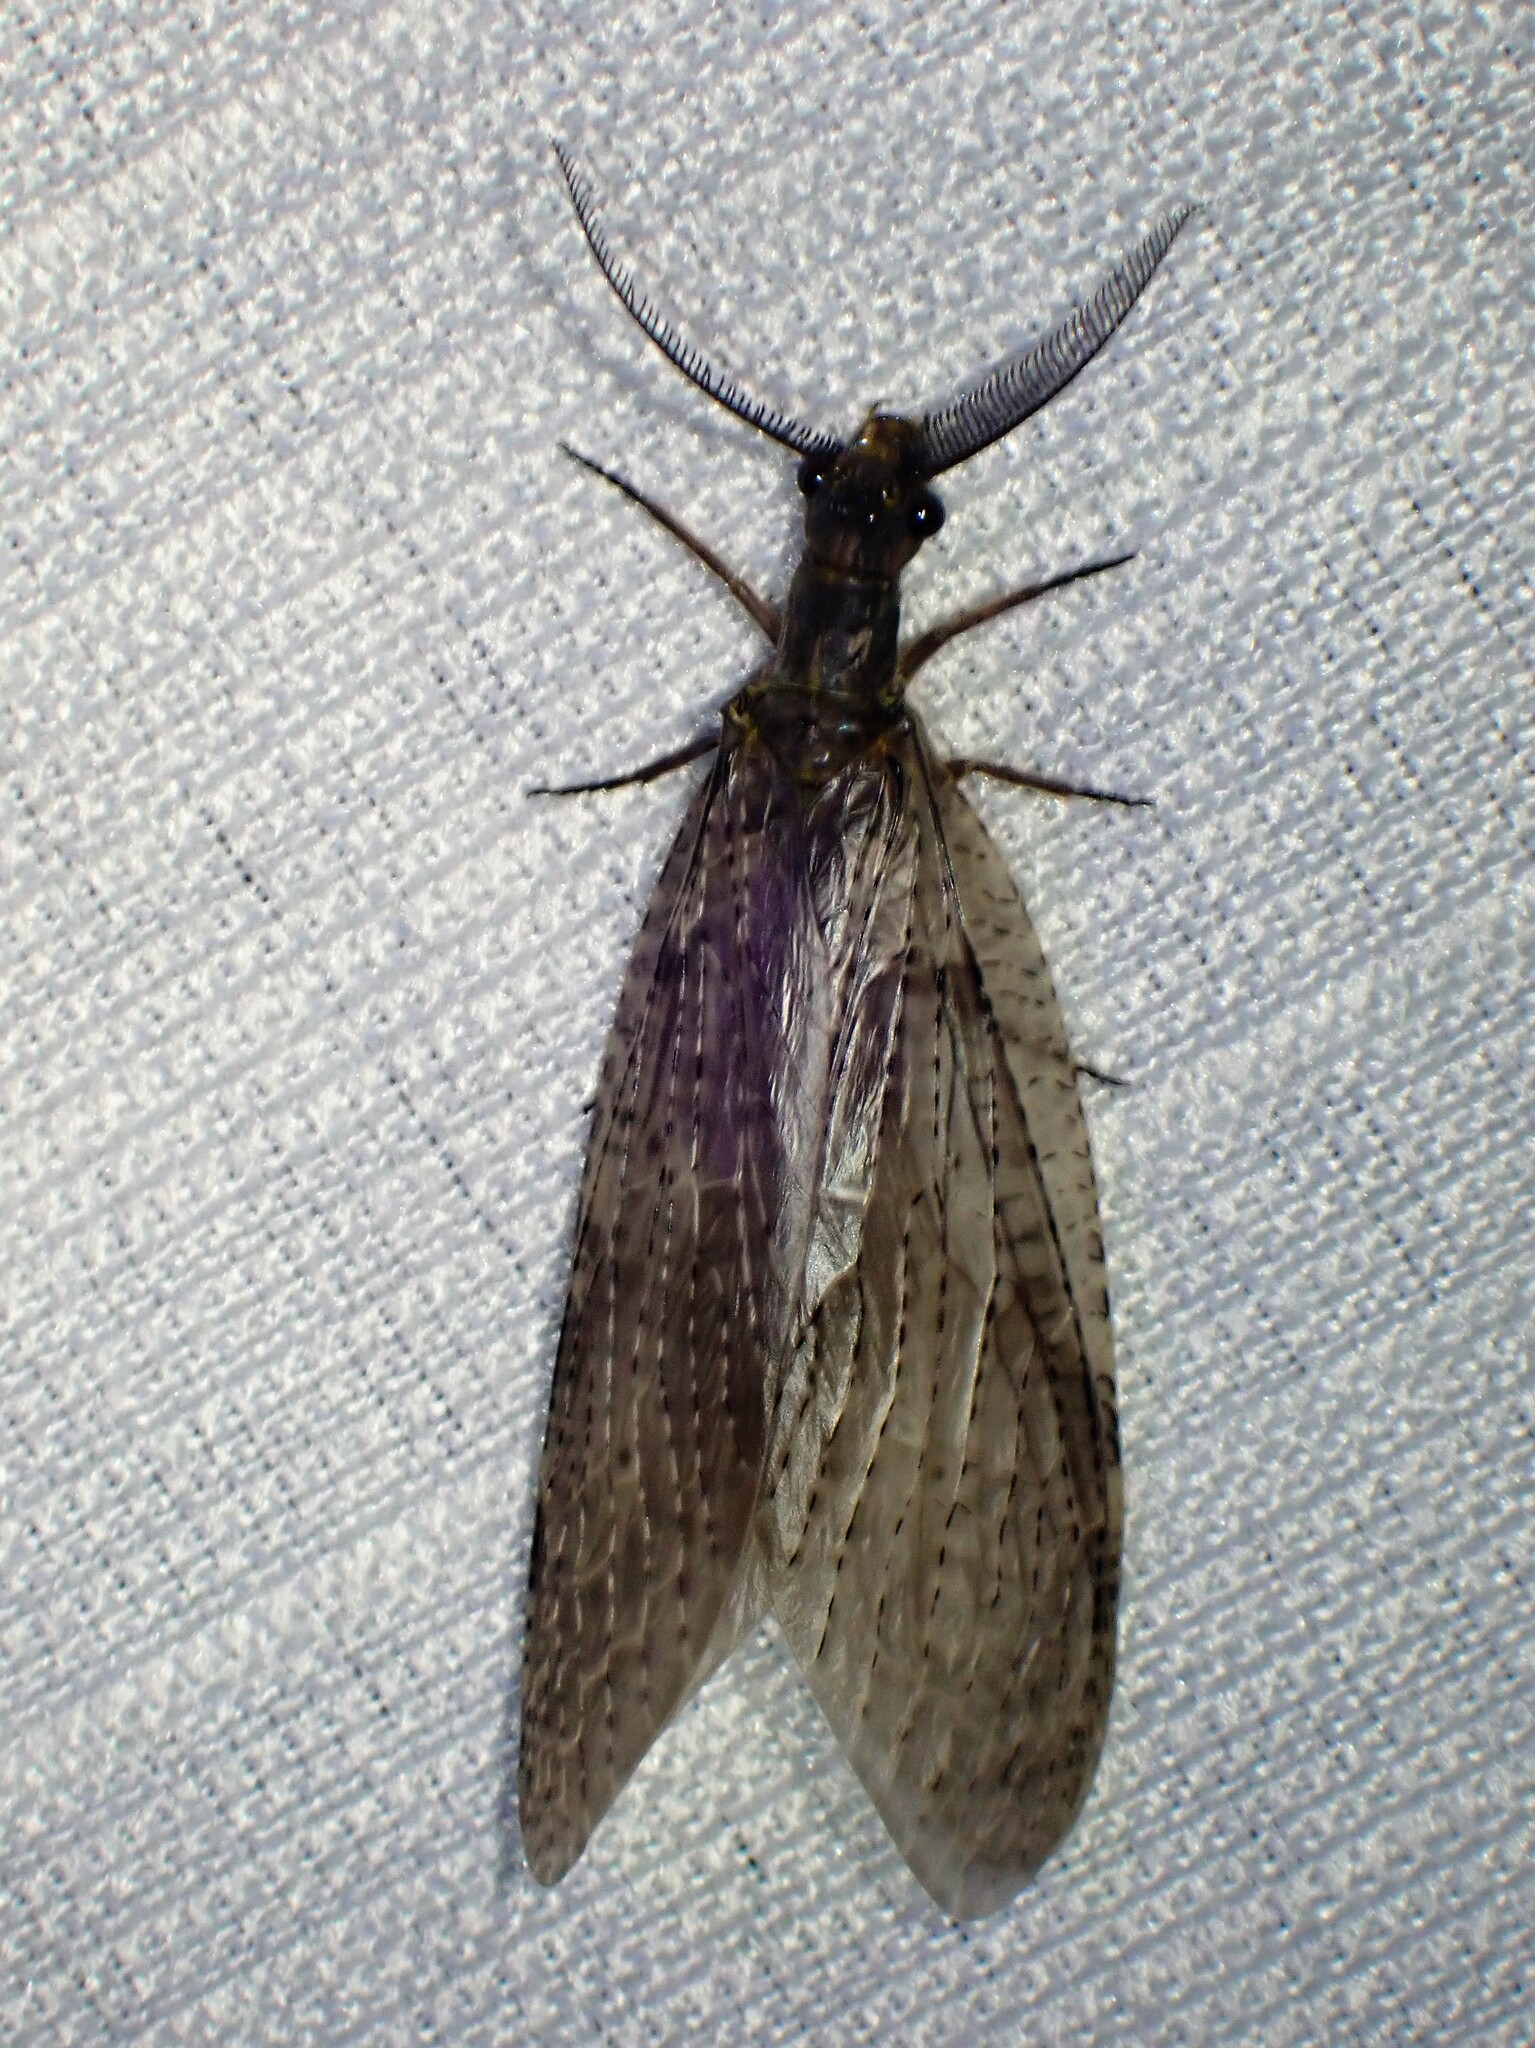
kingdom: Animalia
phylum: Arthropoda
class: Insecta
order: Megaloptera
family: Corydalidae
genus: Chauliodes
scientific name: Chauliodes pectinicornis
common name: Summer fishfly
